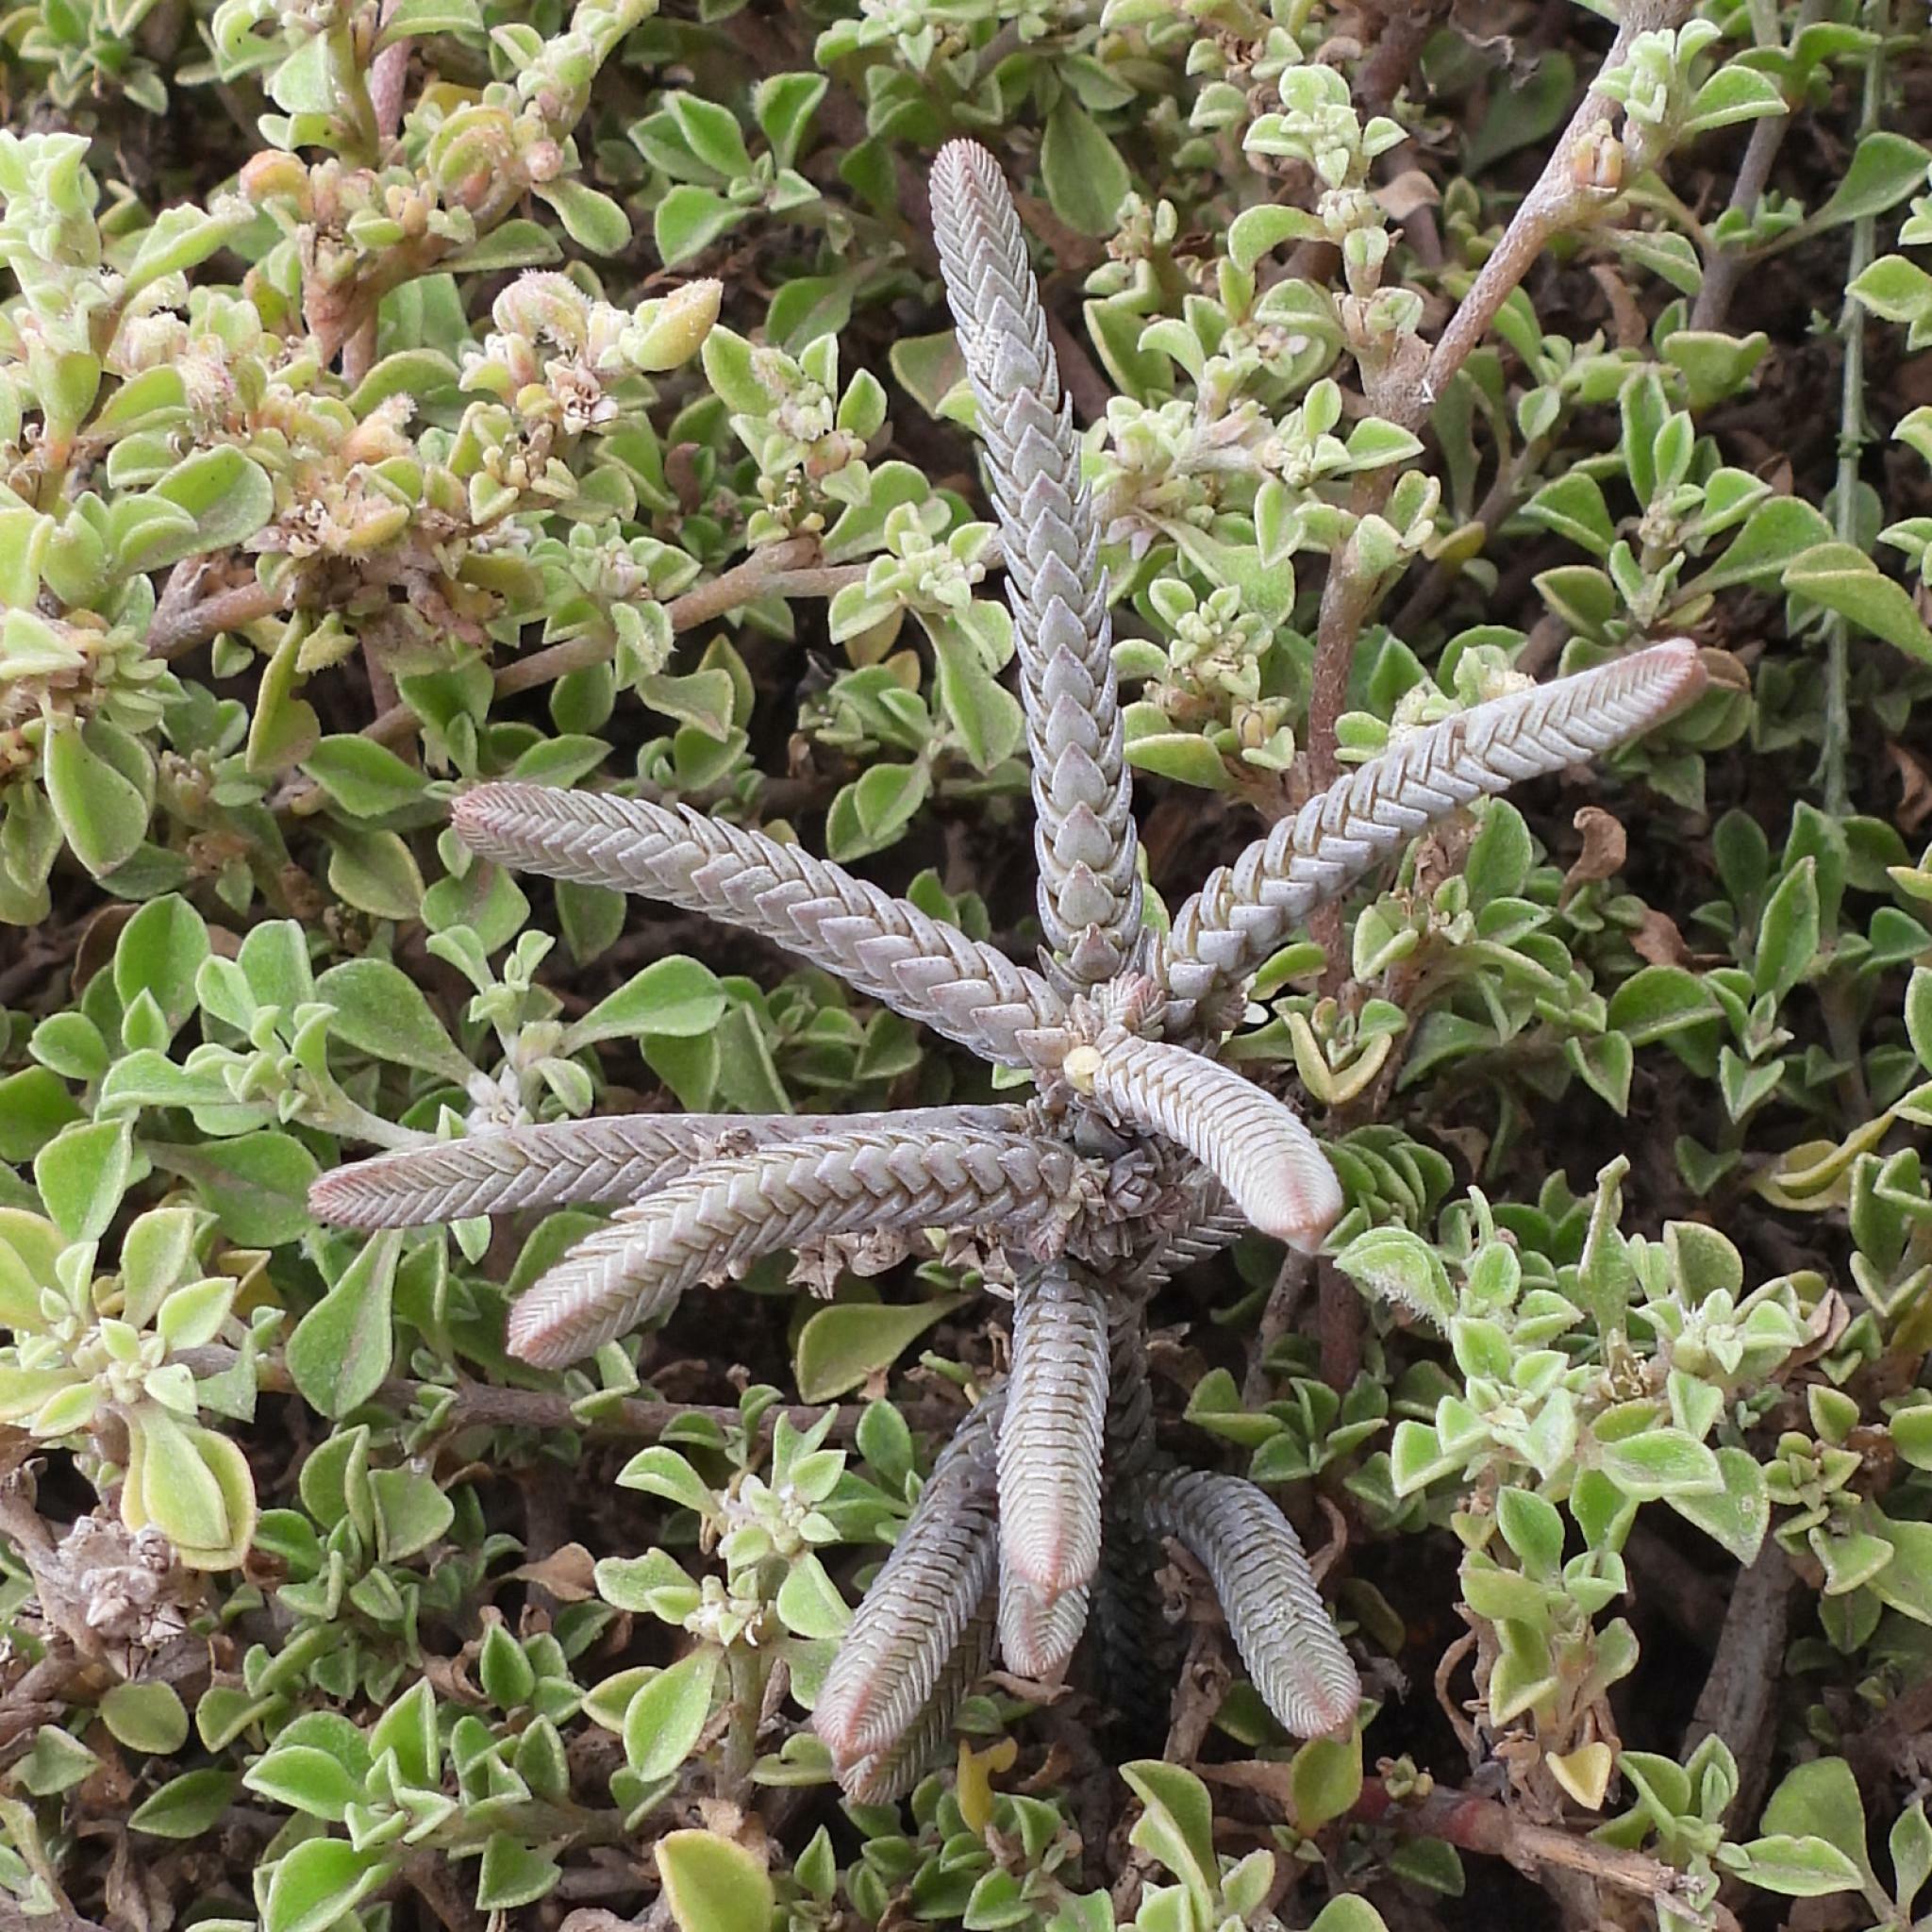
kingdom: Plantae
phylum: Tracheophyta
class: Magnoliopsida
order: Saxifragales
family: Crassulaceae
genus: Crassula
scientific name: Crassula muscosa
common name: Toy-cypress
